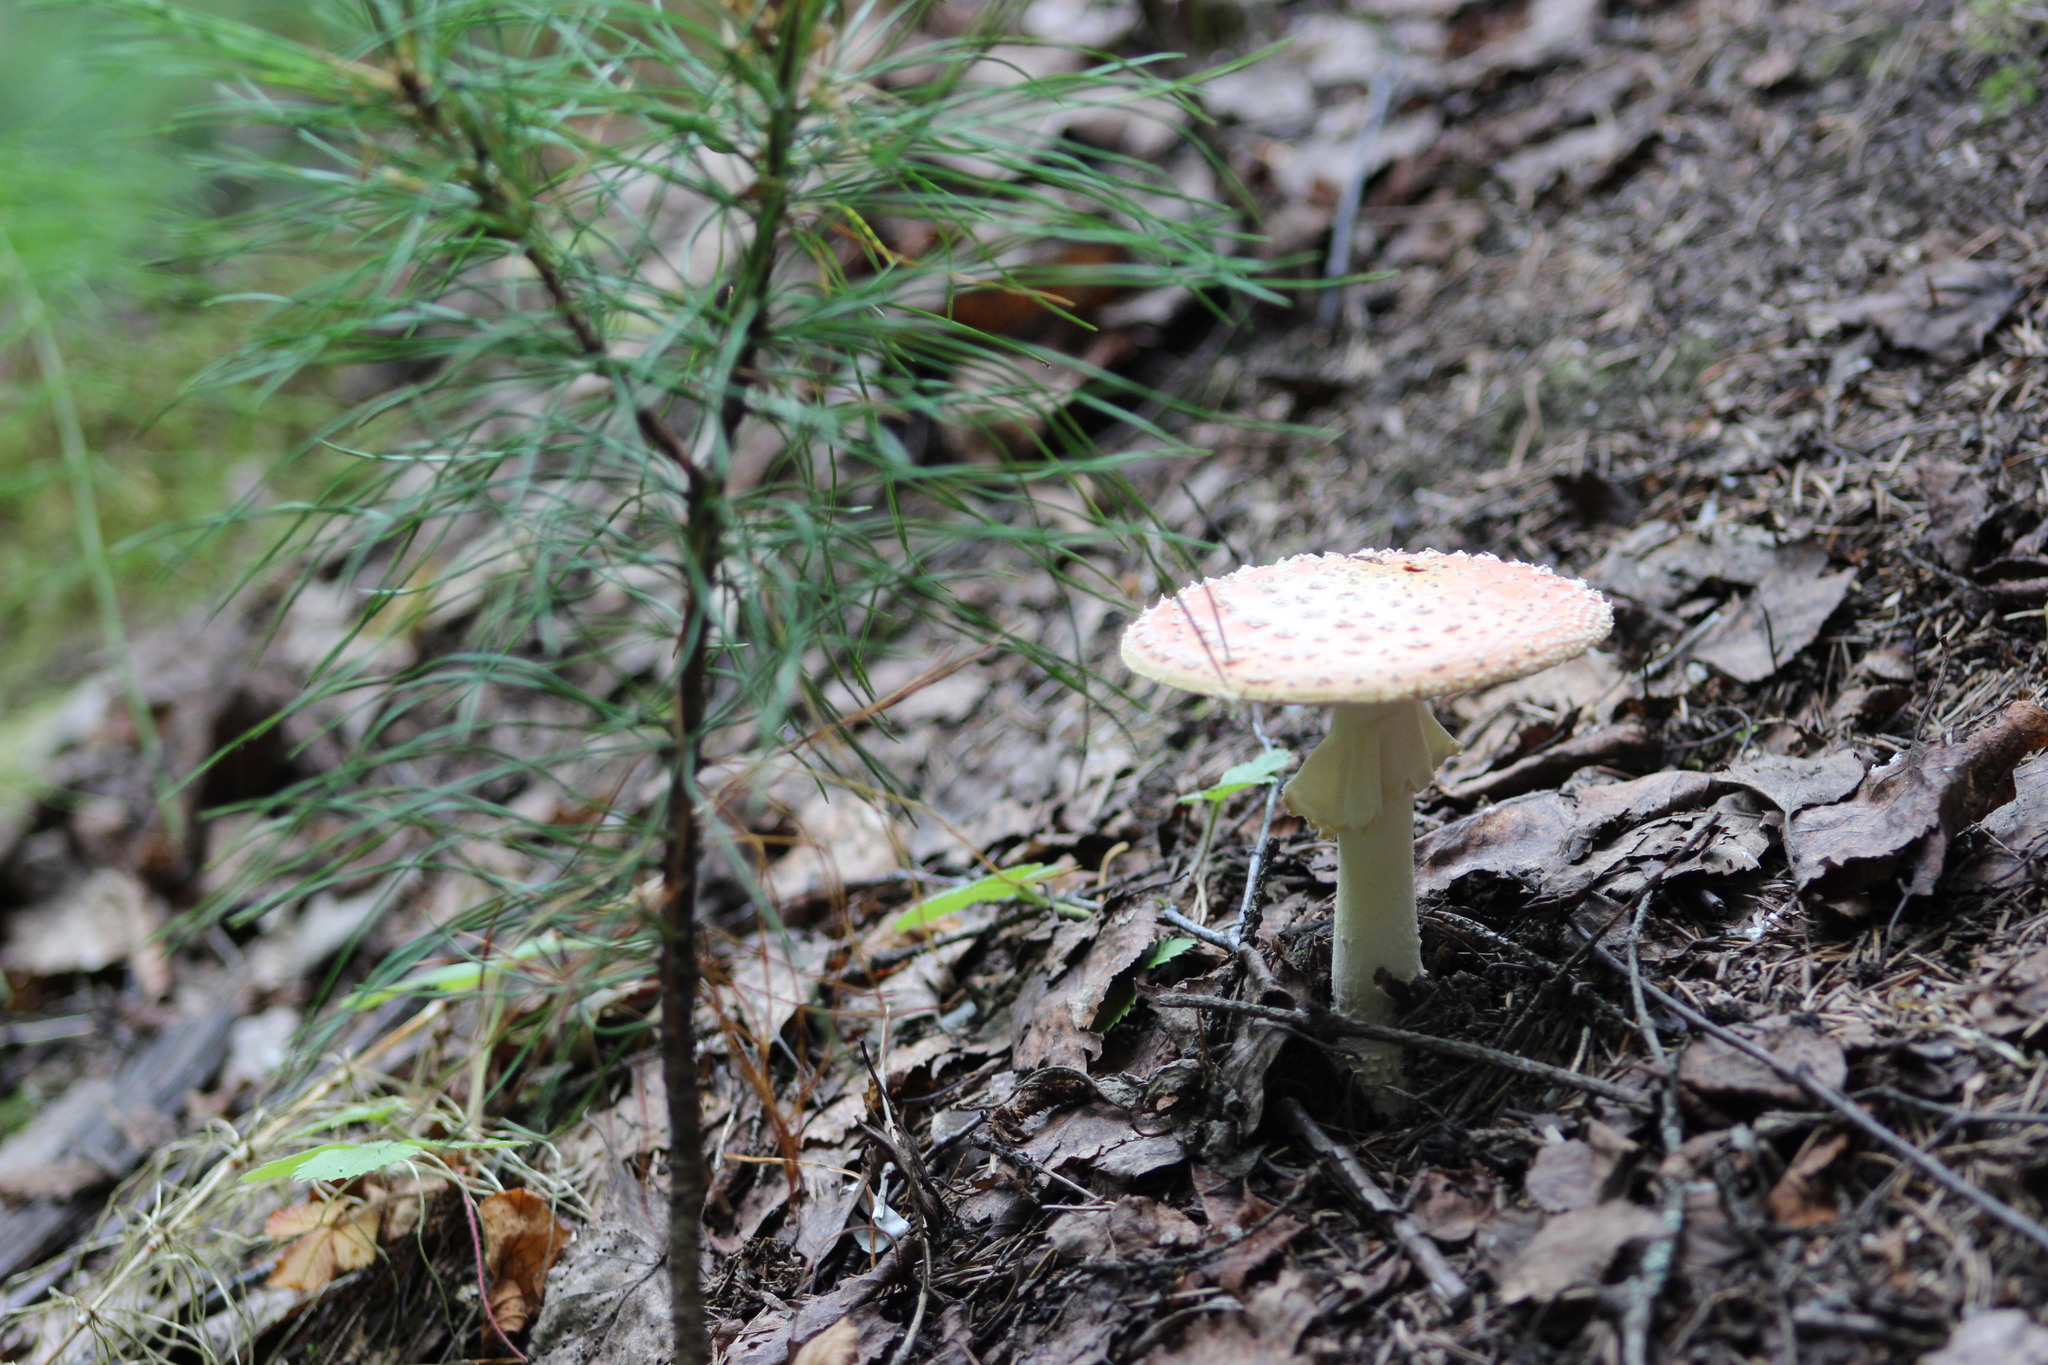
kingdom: Fungi
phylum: Basidiomycota
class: Agaricomycetes
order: Agaricales
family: Amanitaceae
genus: Amanita
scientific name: Amanita muscaria
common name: Fly agaric
